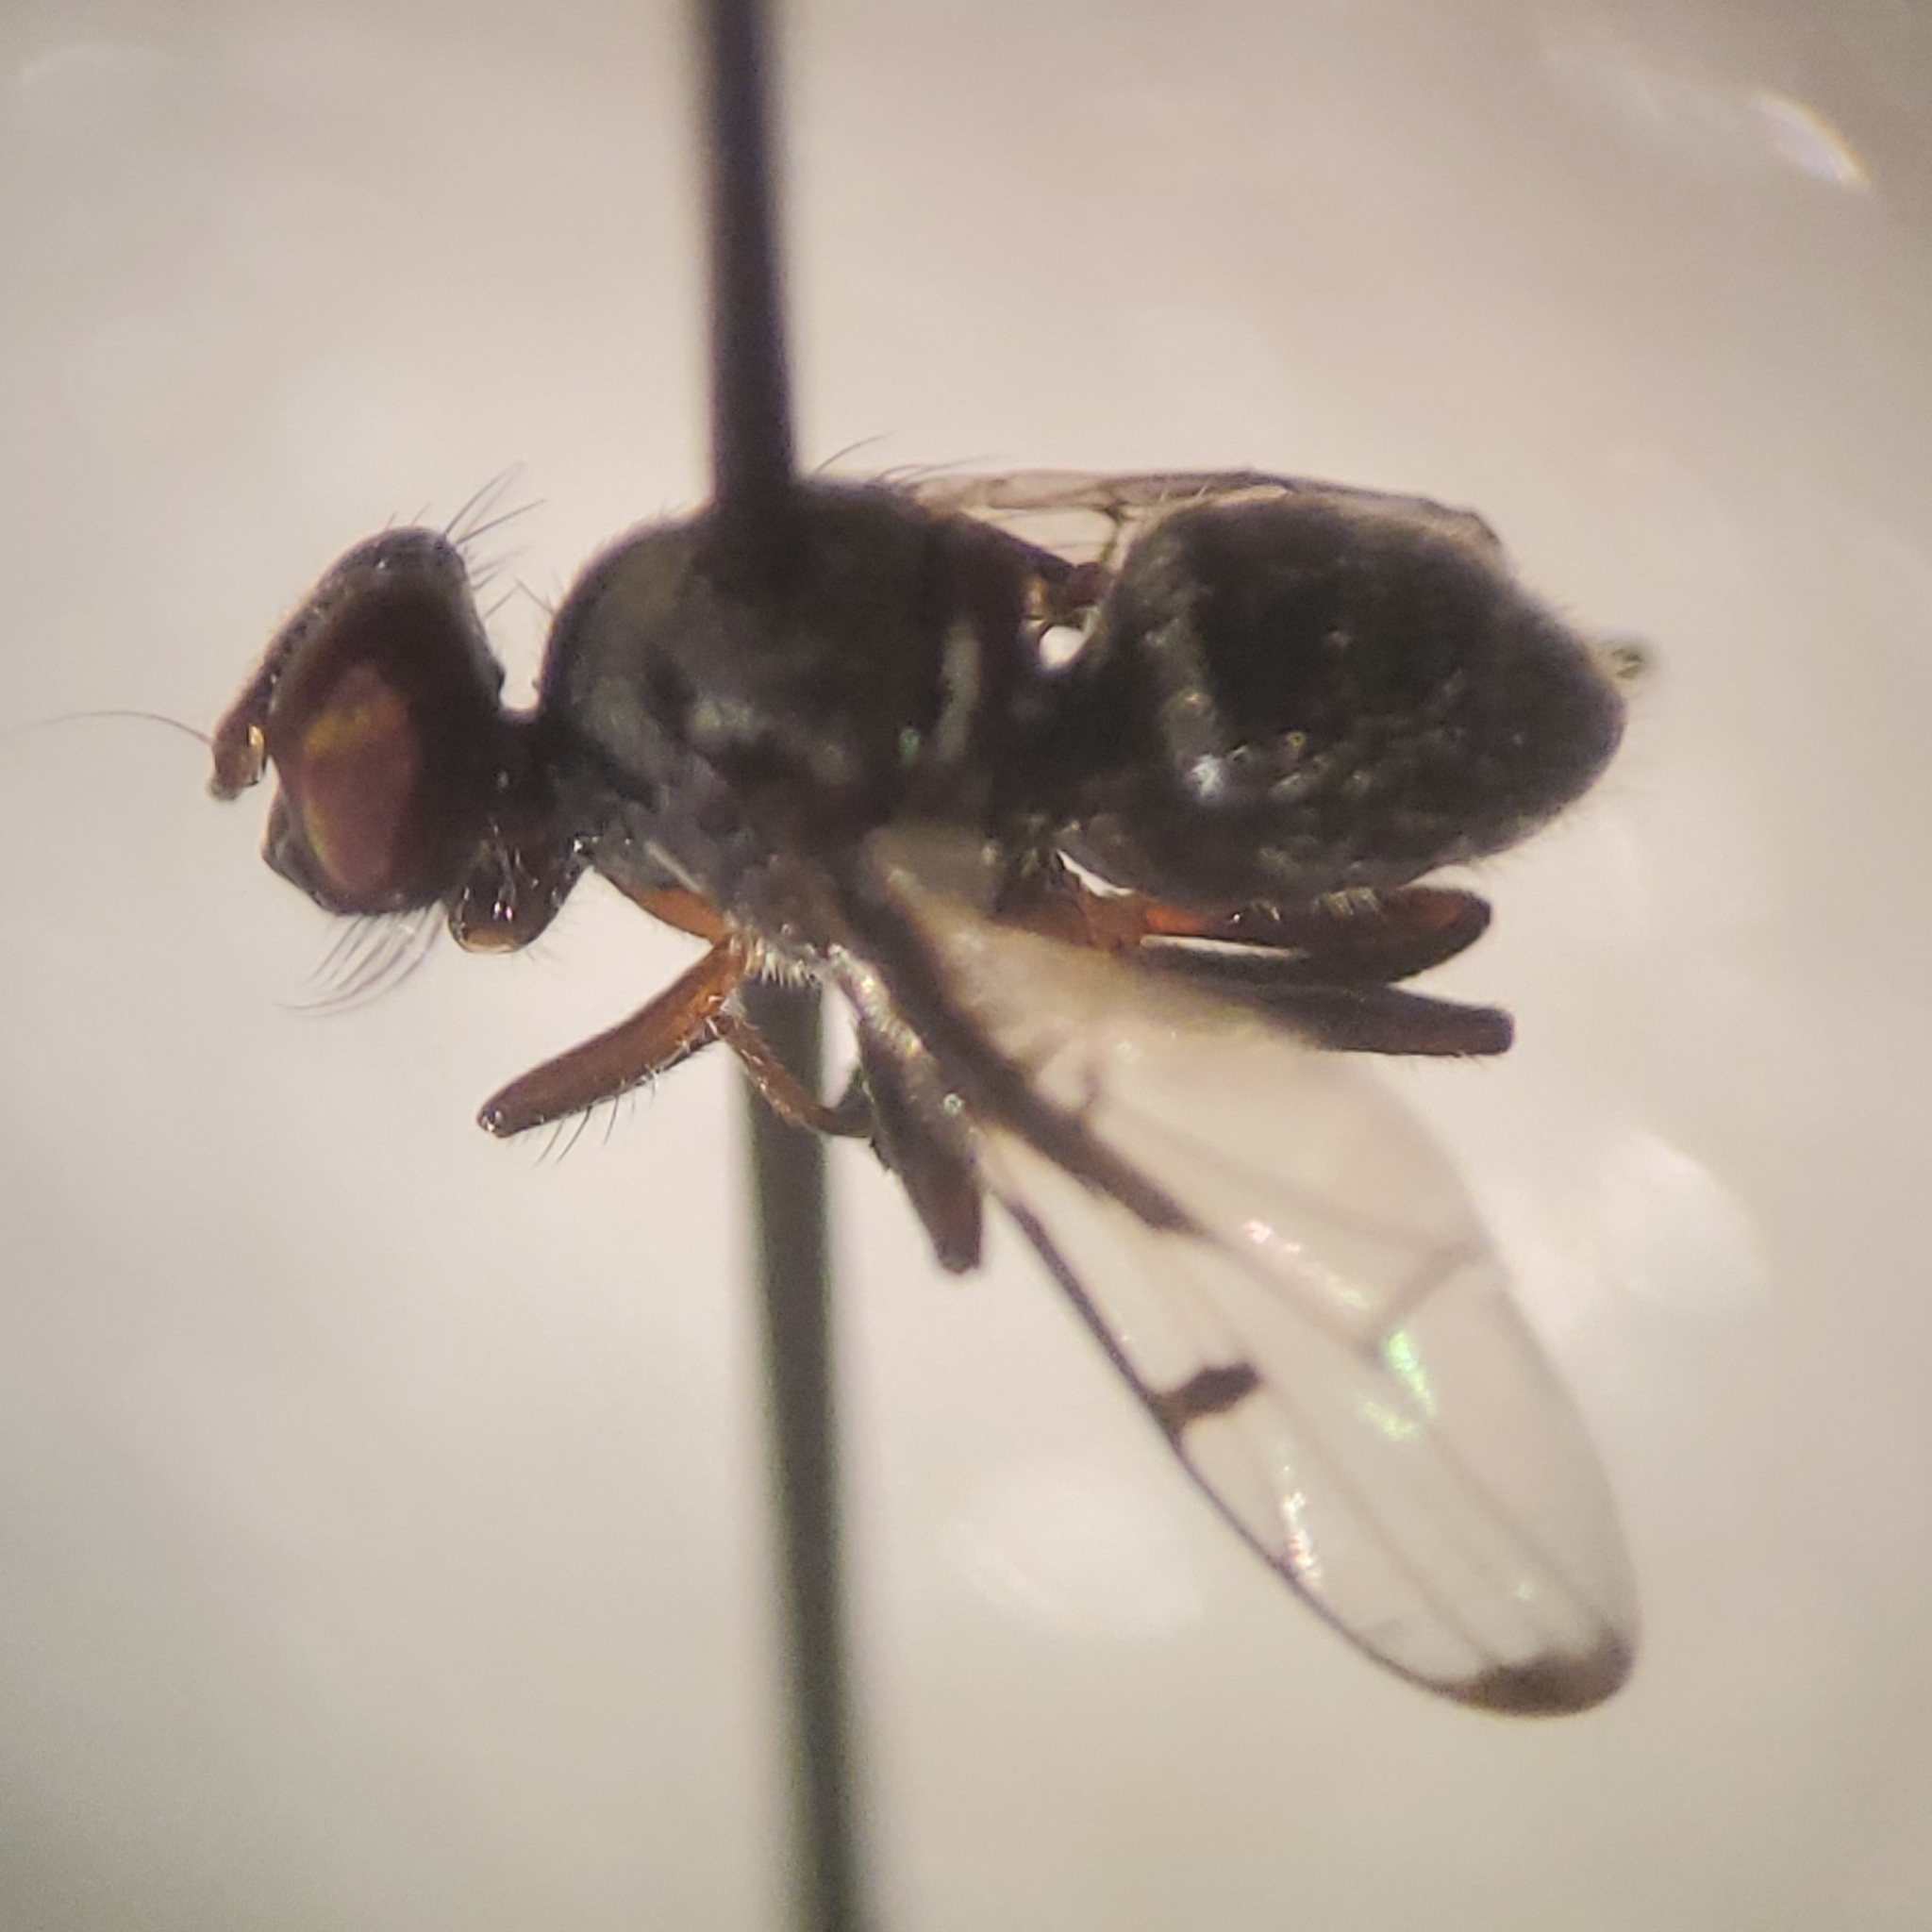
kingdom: Animalia
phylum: Arthropoda
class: Insecta
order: Diptera
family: Platystomatidae
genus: Pogonortalis
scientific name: Pogonortalis doclea
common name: Boatman fly
